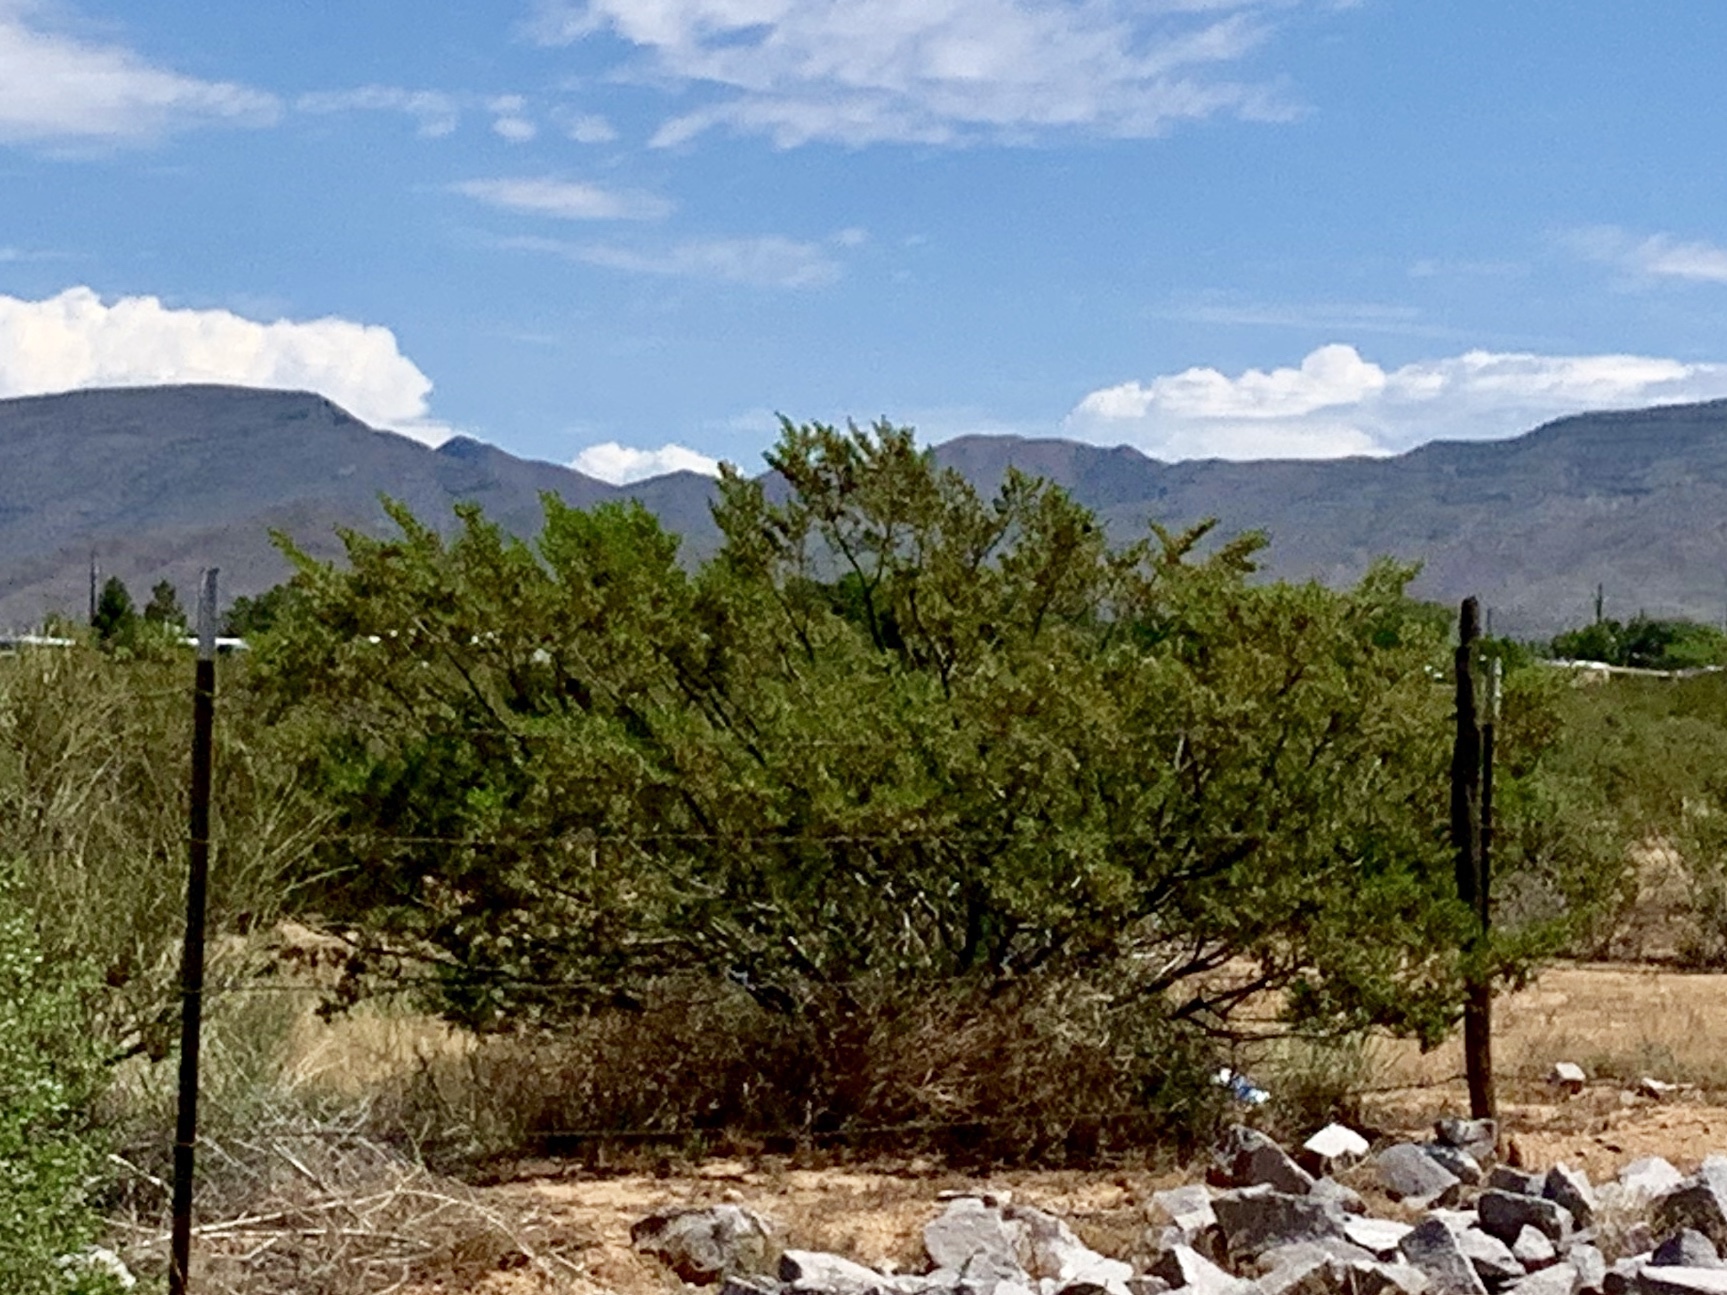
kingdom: Plantae
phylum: Tracheophyta
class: Magnoliopsida
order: Zygophyllales
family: Zygophyllaceae
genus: Larrea
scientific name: Larrea tridentata
